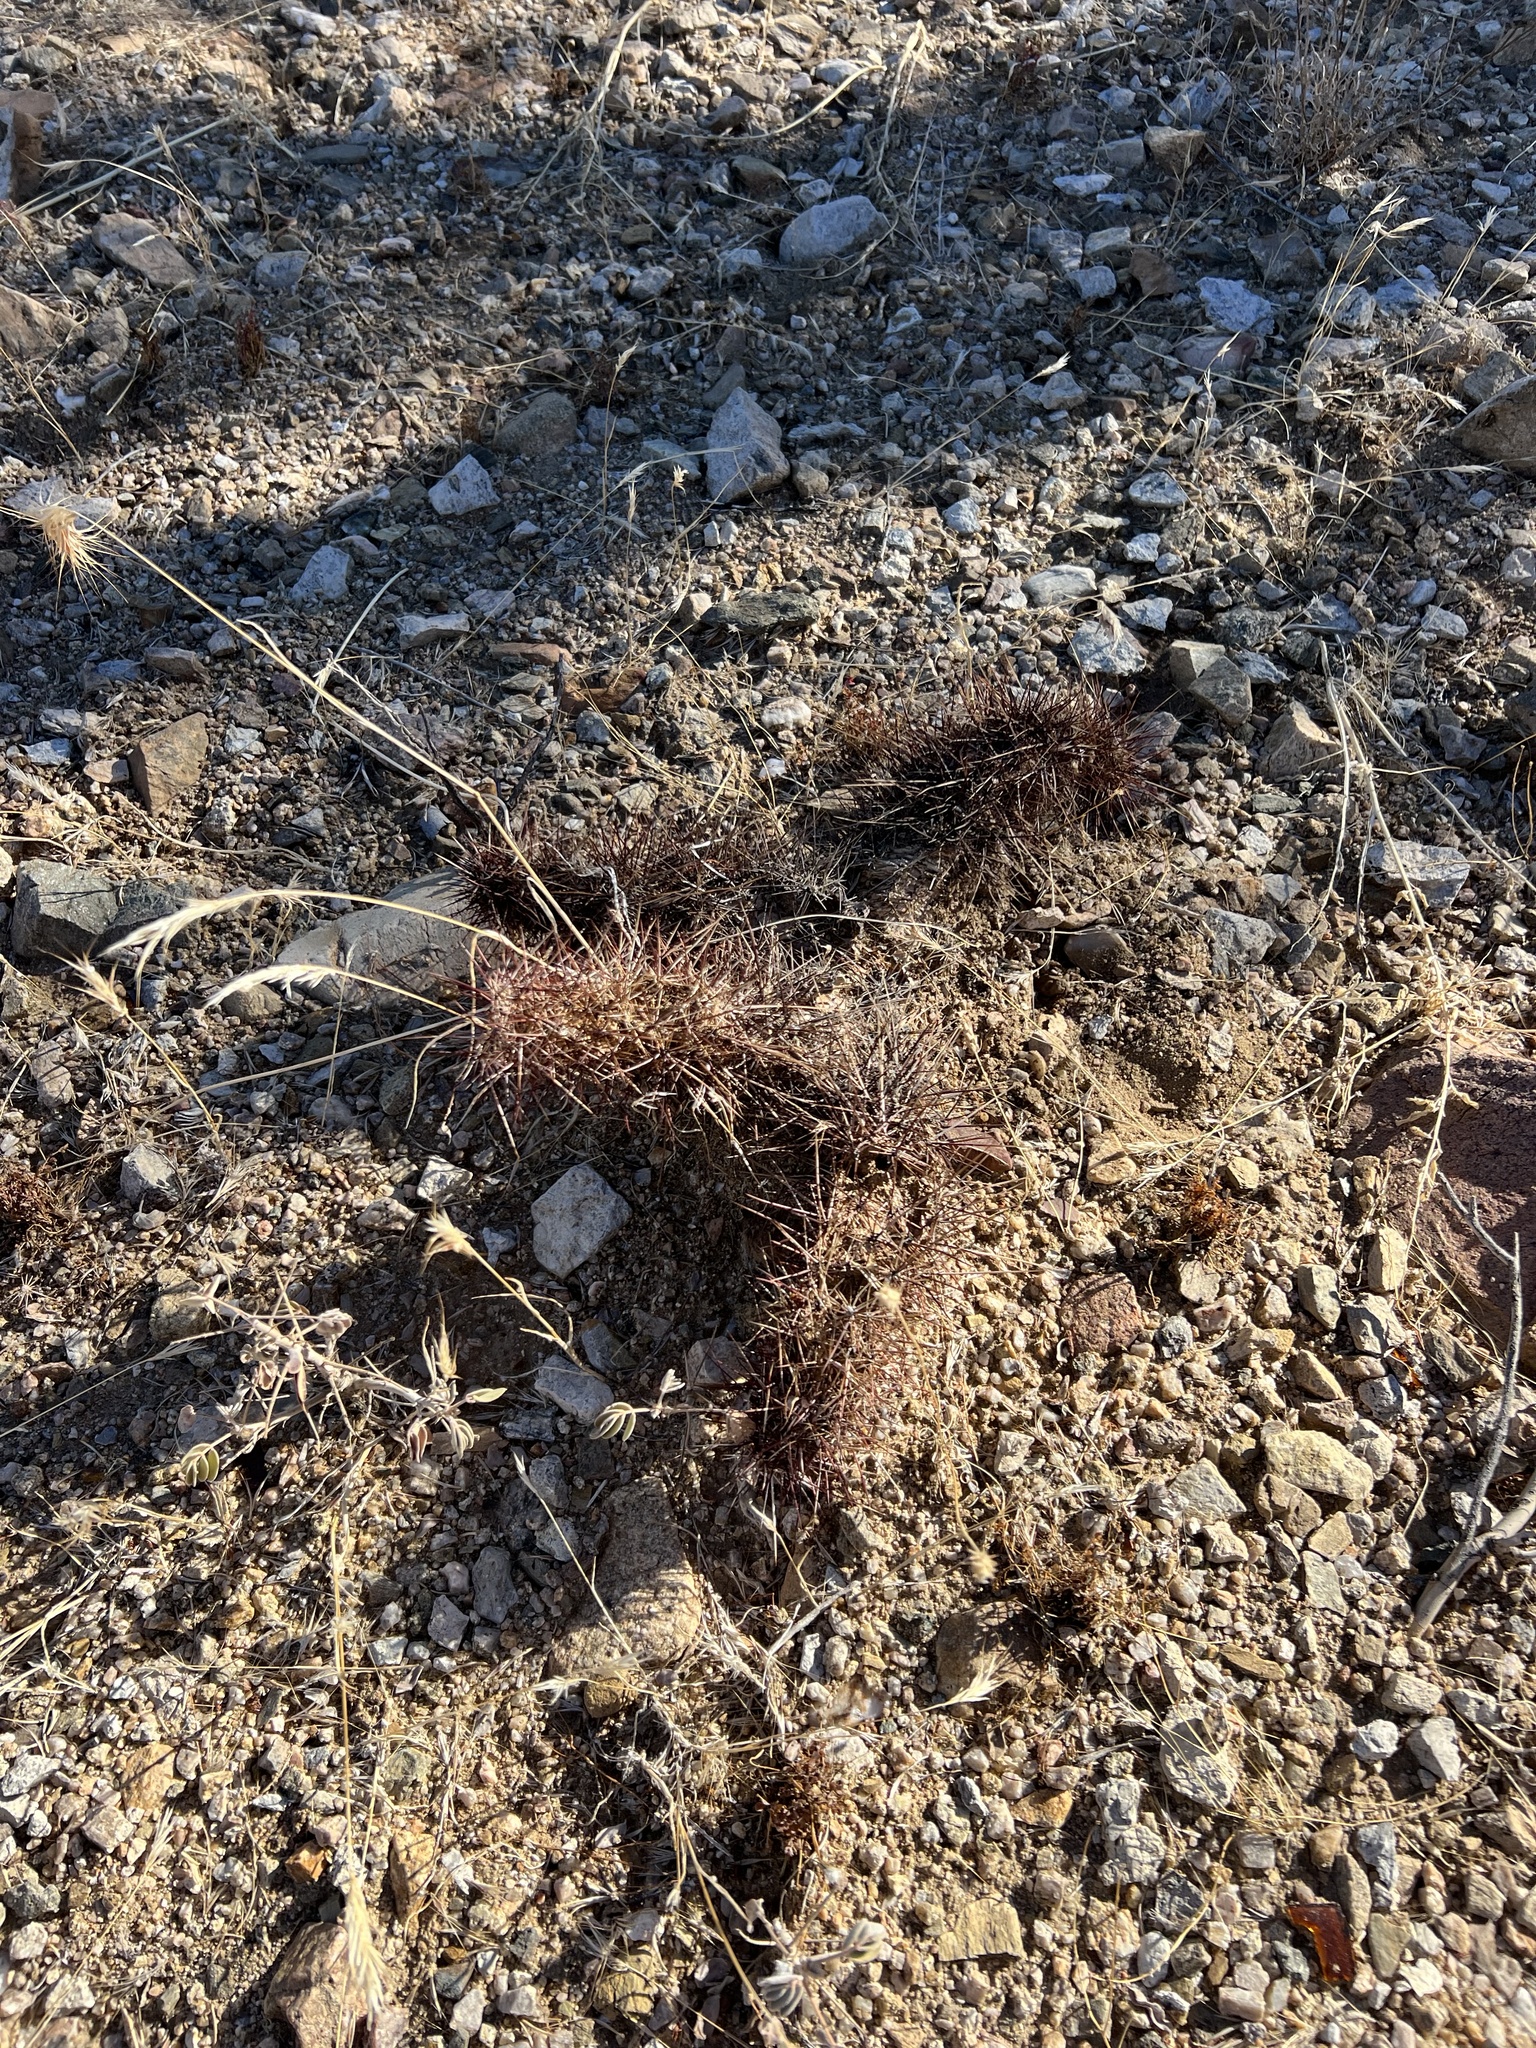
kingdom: Plantae
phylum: Tracheophyta
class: Magnoliopsida
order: Caryophyllales
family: Cactaceae
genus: Echinocereus
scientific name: Echinocereus engelmannii
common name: Engelmann's hedgehog cactus
